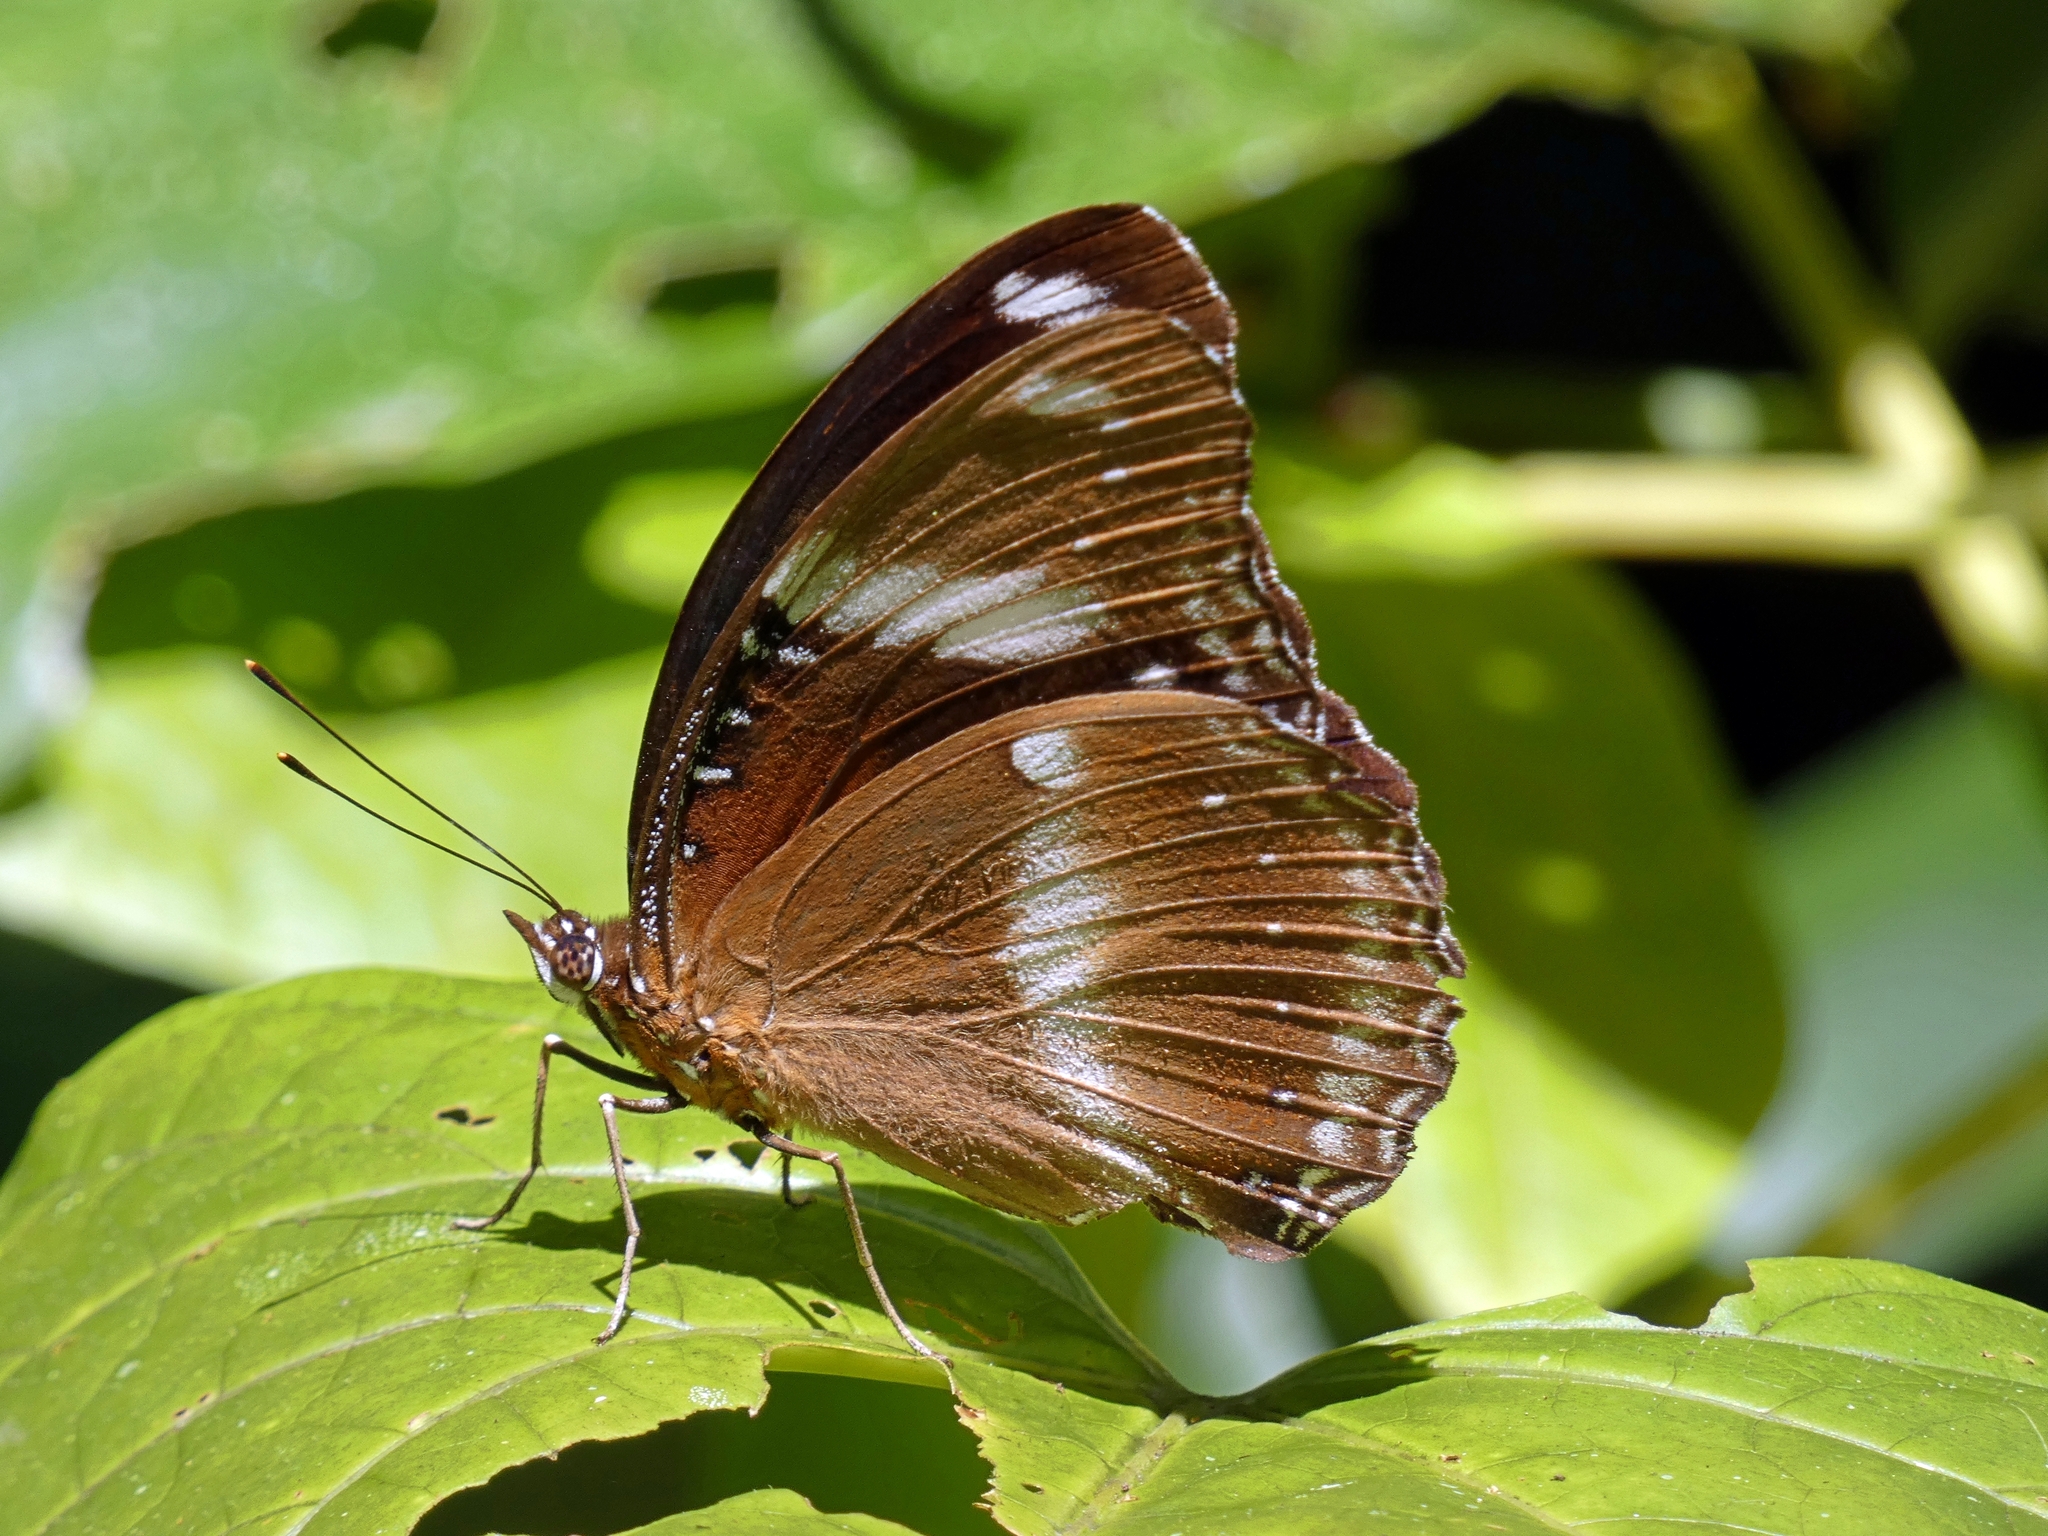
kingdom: Animalia
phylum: Arthropoda
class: Insecta
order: Lepidoptera
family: Nymphalidae
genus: Hypolimnas
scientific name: Hypolimnas bolina
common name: Great eggfly
